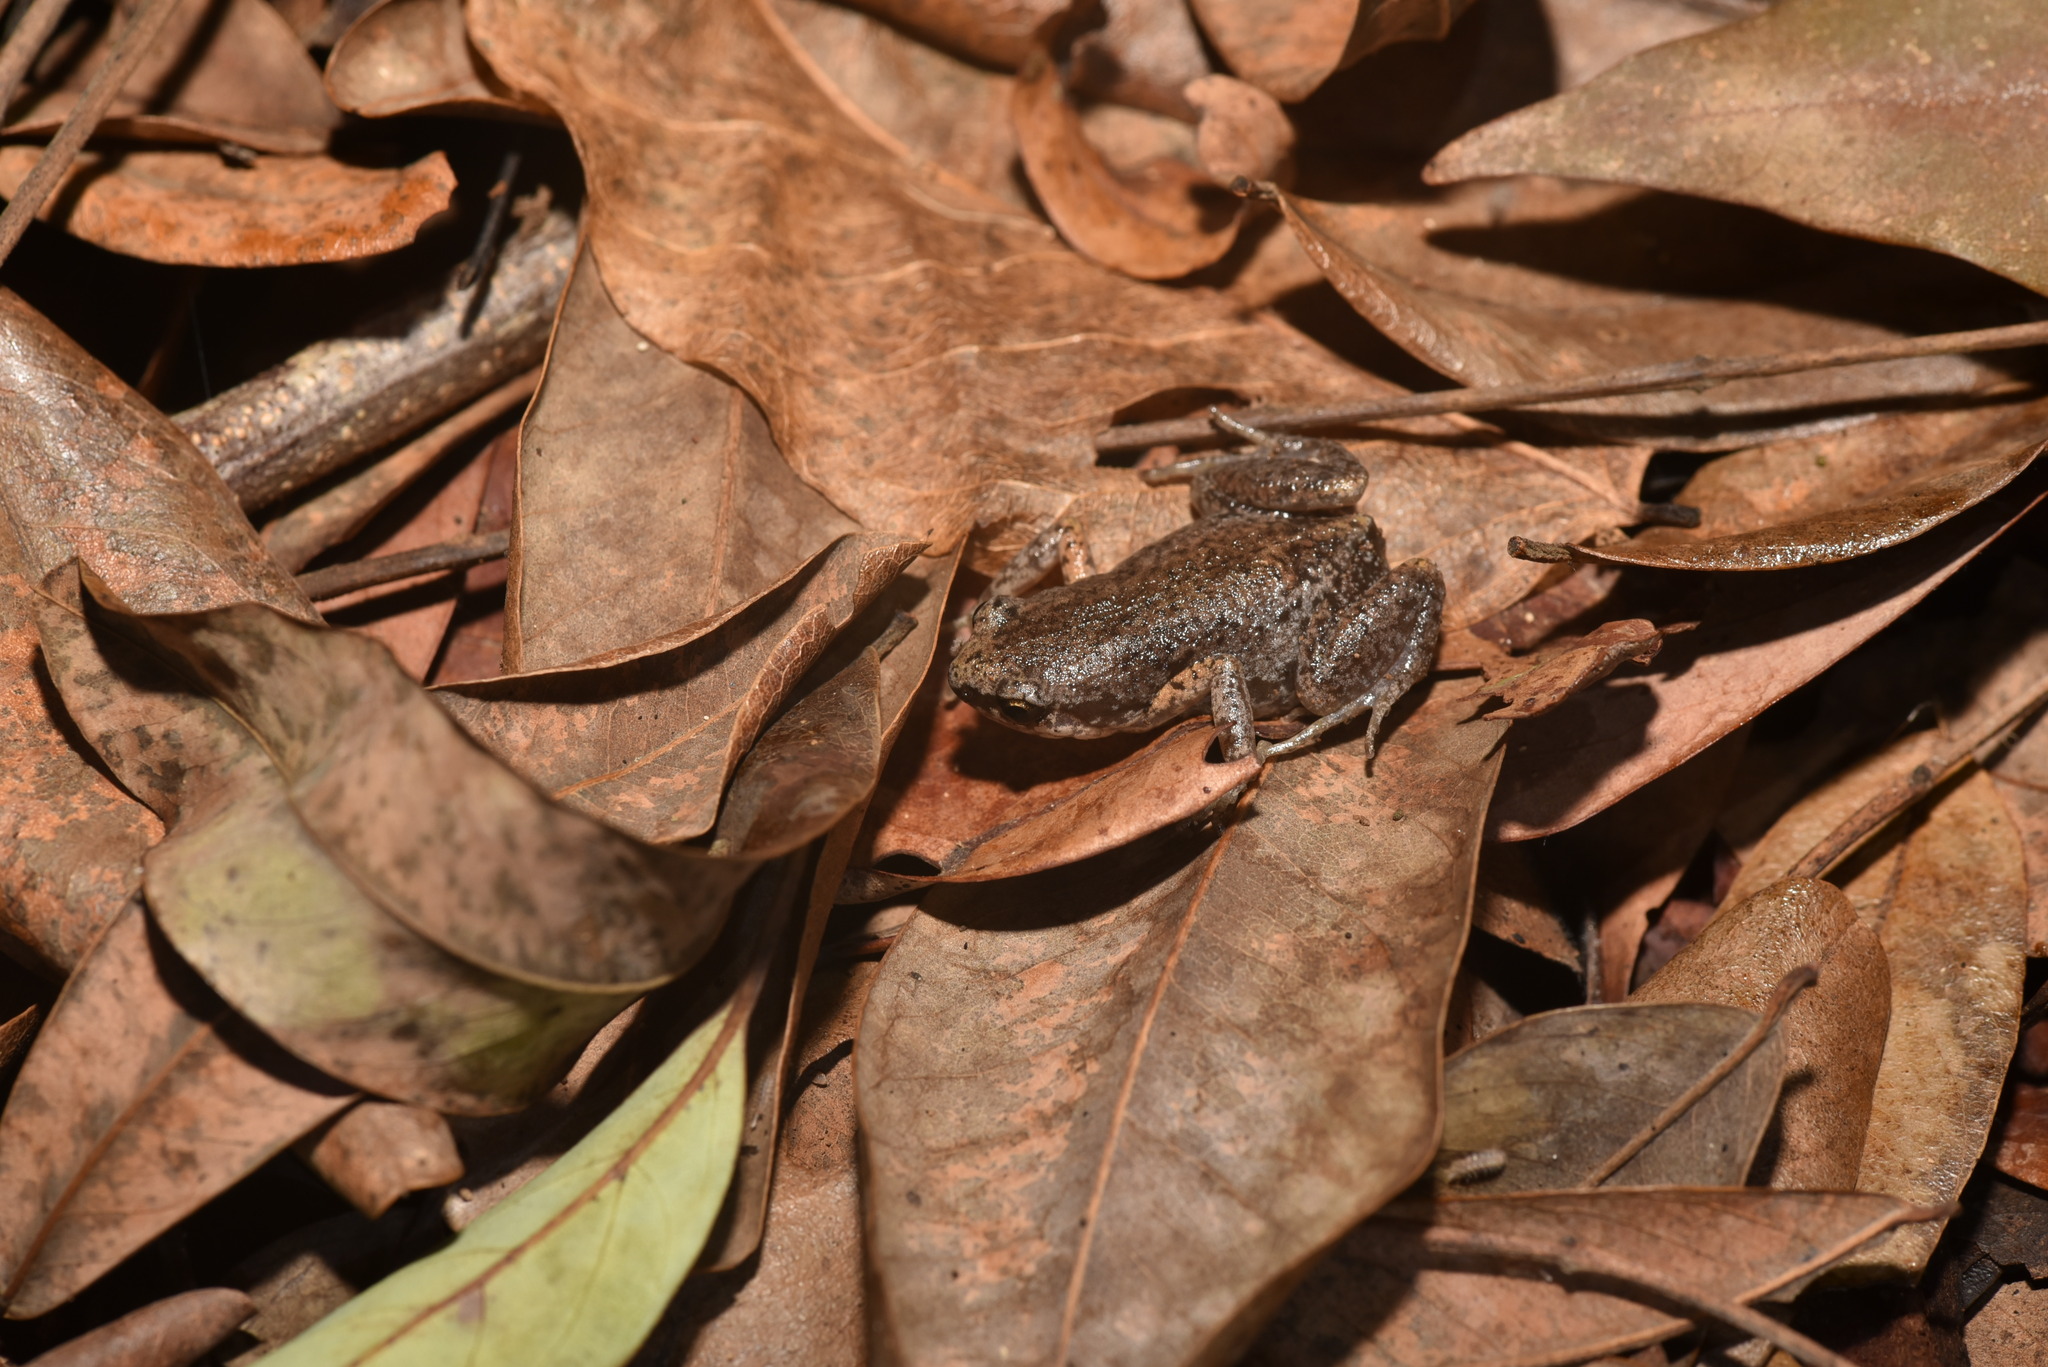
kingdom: Animalia
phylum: Chordata
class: Amphibia
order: Anura
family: Microhylidae
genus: Micryletta
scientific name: Micryletta steinegeri
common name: Stejneger's paddy frog
